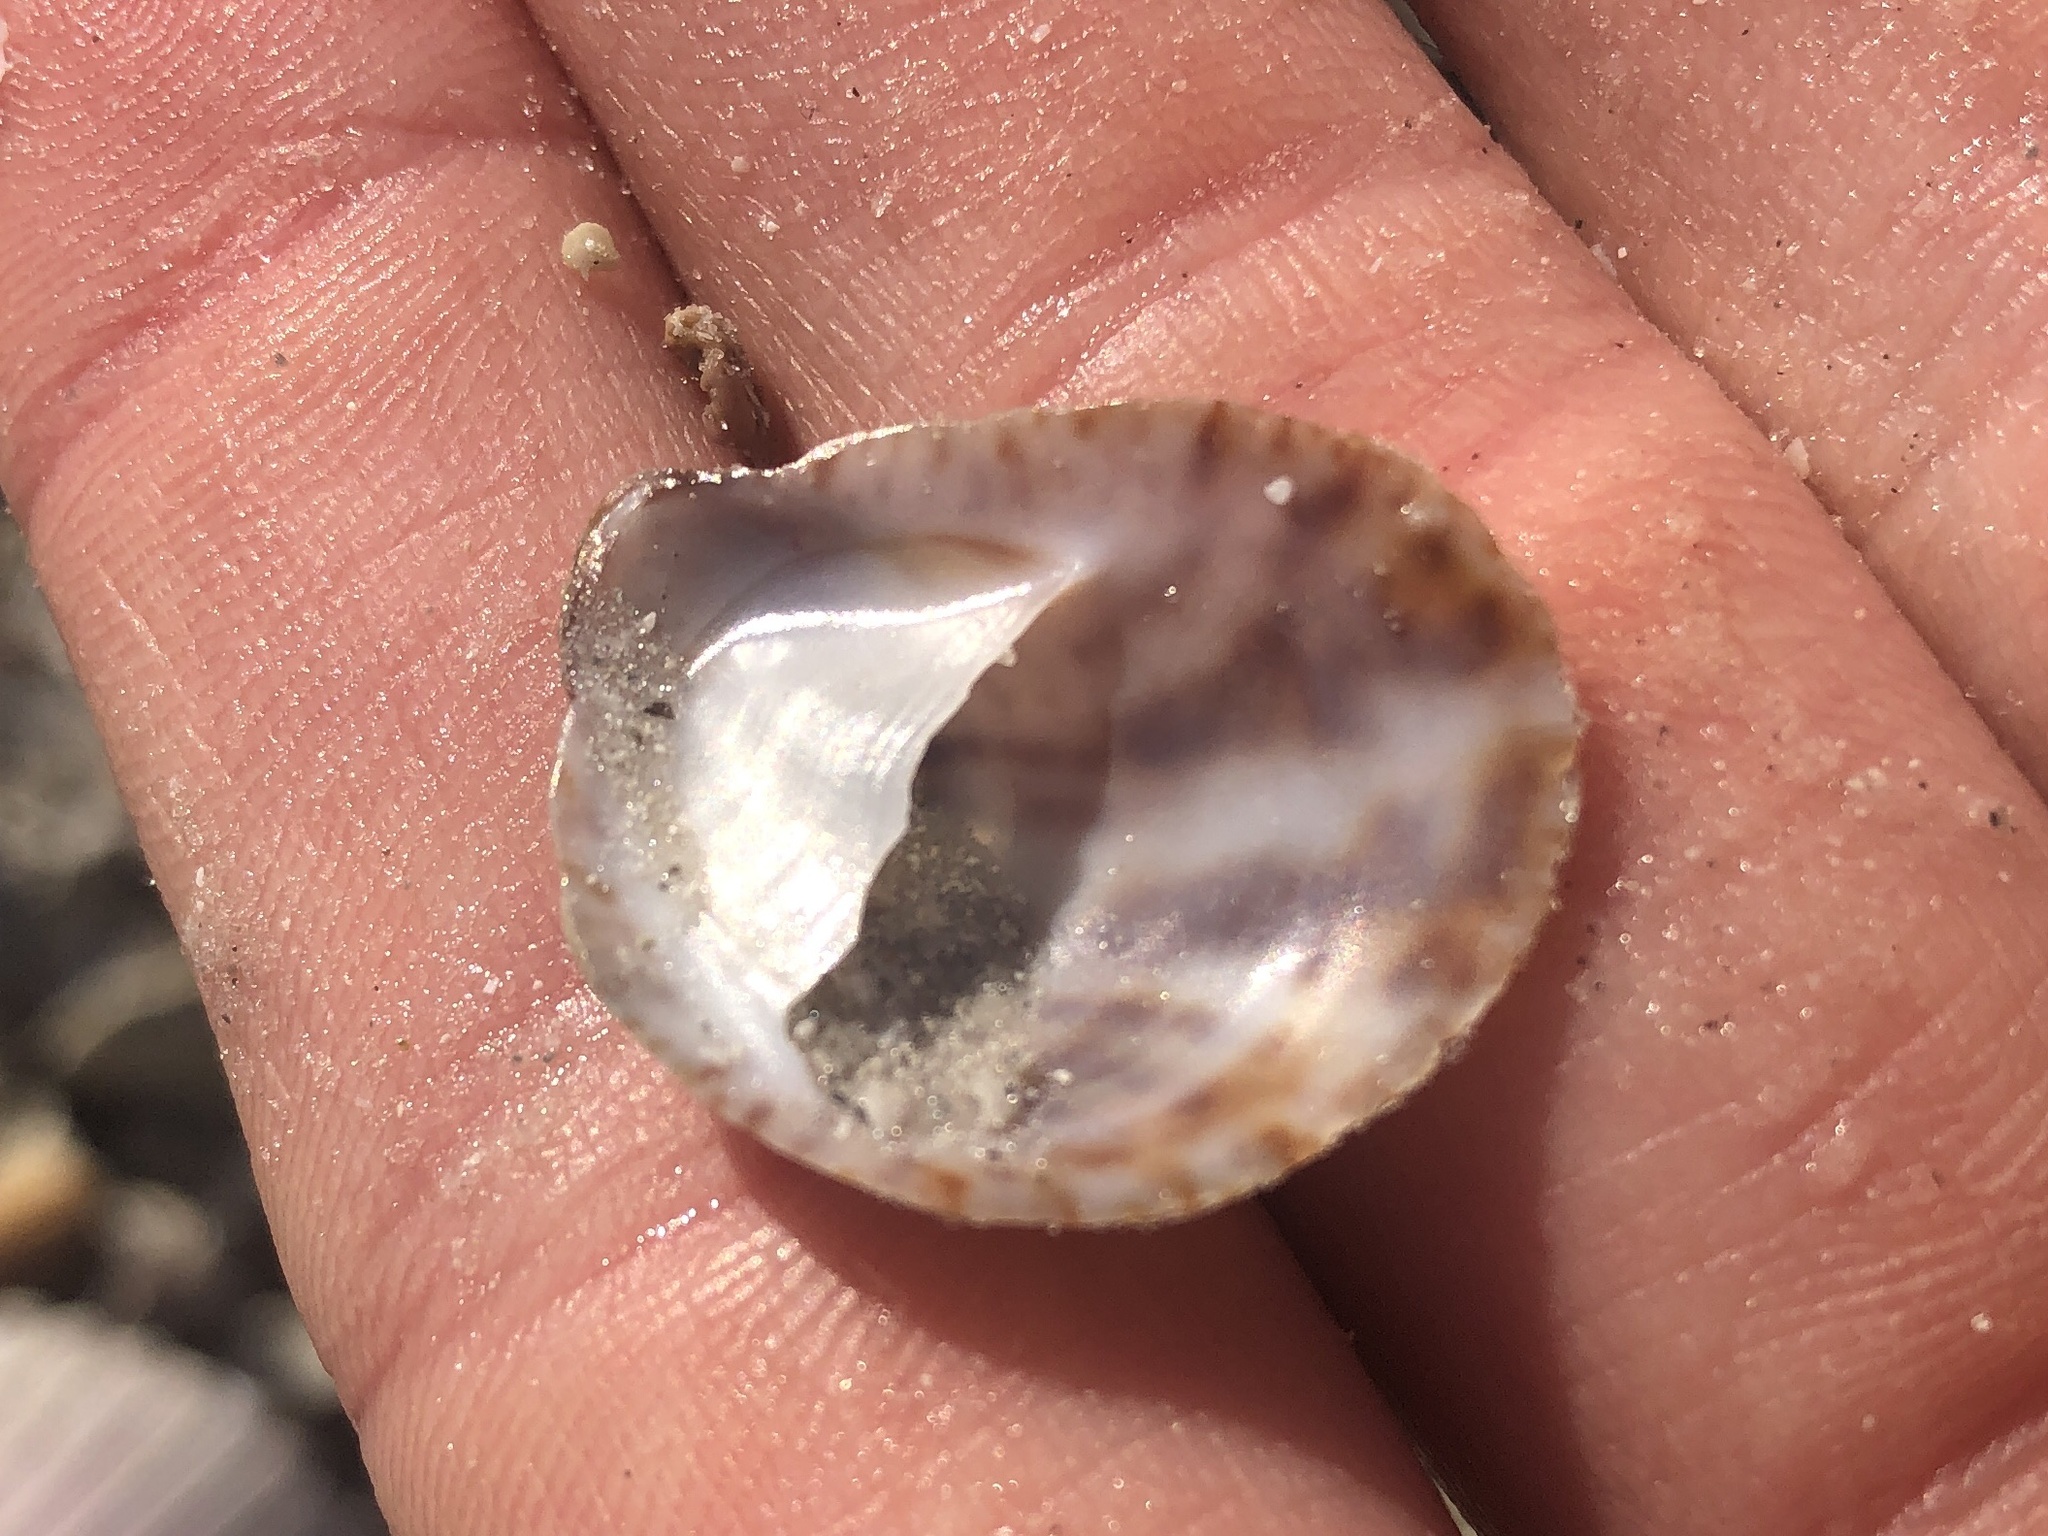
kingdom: Animalia
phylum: Mollusca
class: Gastropoda
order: Littorinimorpha
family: Calyptraeidae
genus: Crepidula
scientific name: Crepidula fornicata
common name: Slipper limpet
